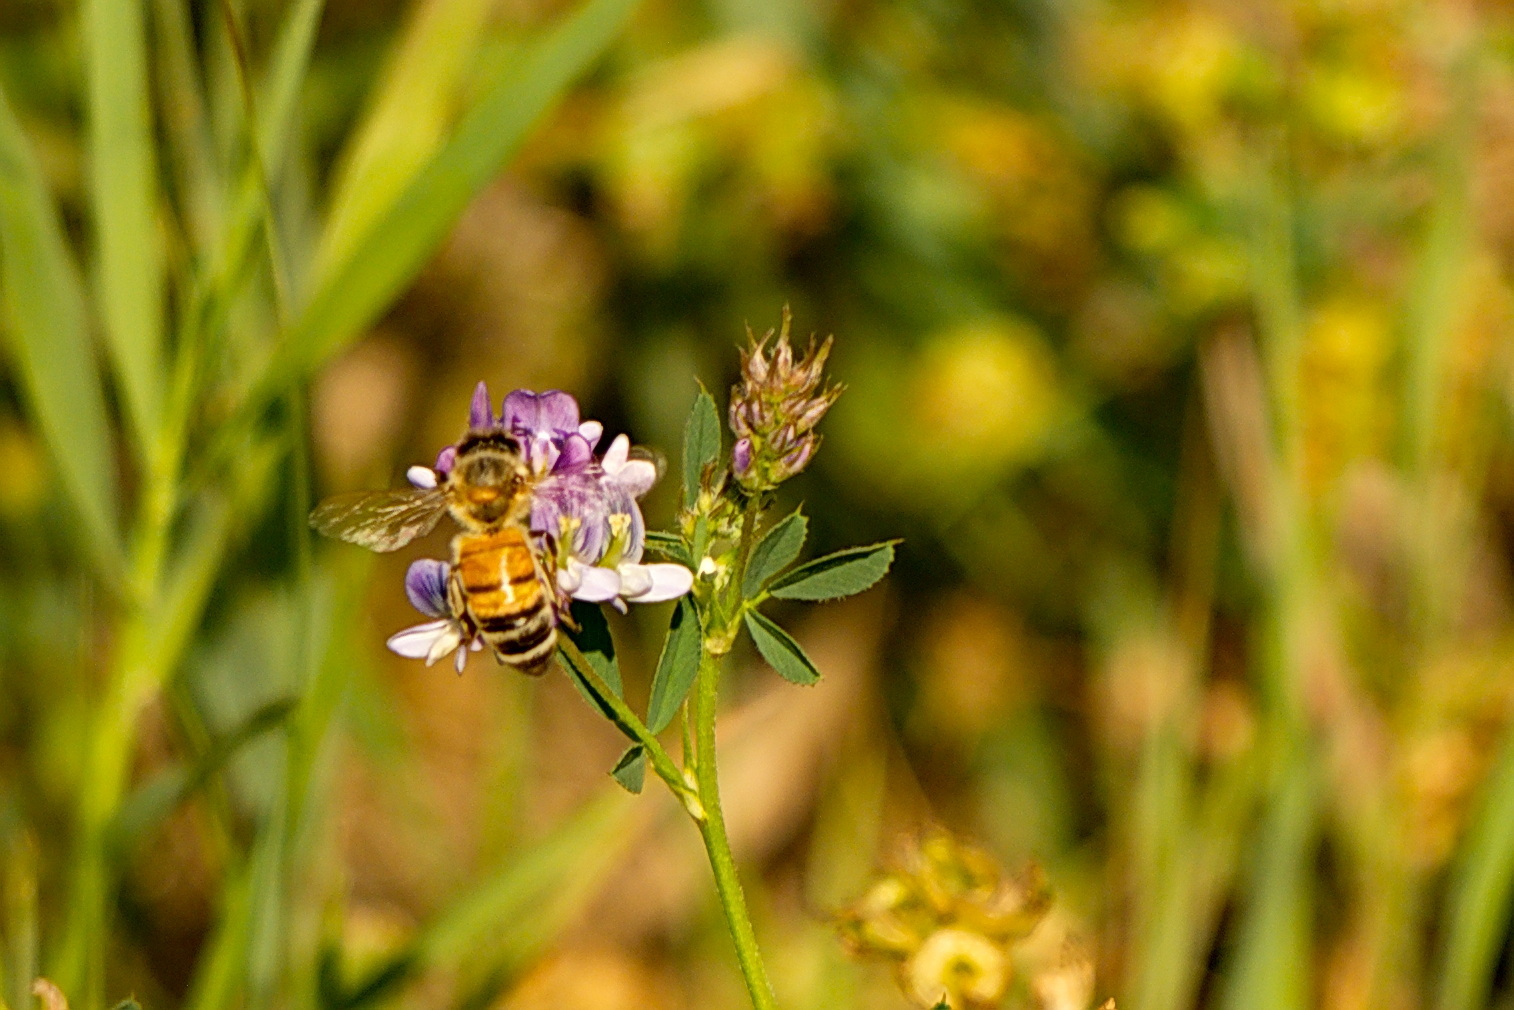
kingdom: Animalia
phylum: Arthropoda
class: Insecta
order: Hymenoptera
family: Apidae
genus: Apis
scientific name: Apis mellifera
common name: Honey bee
